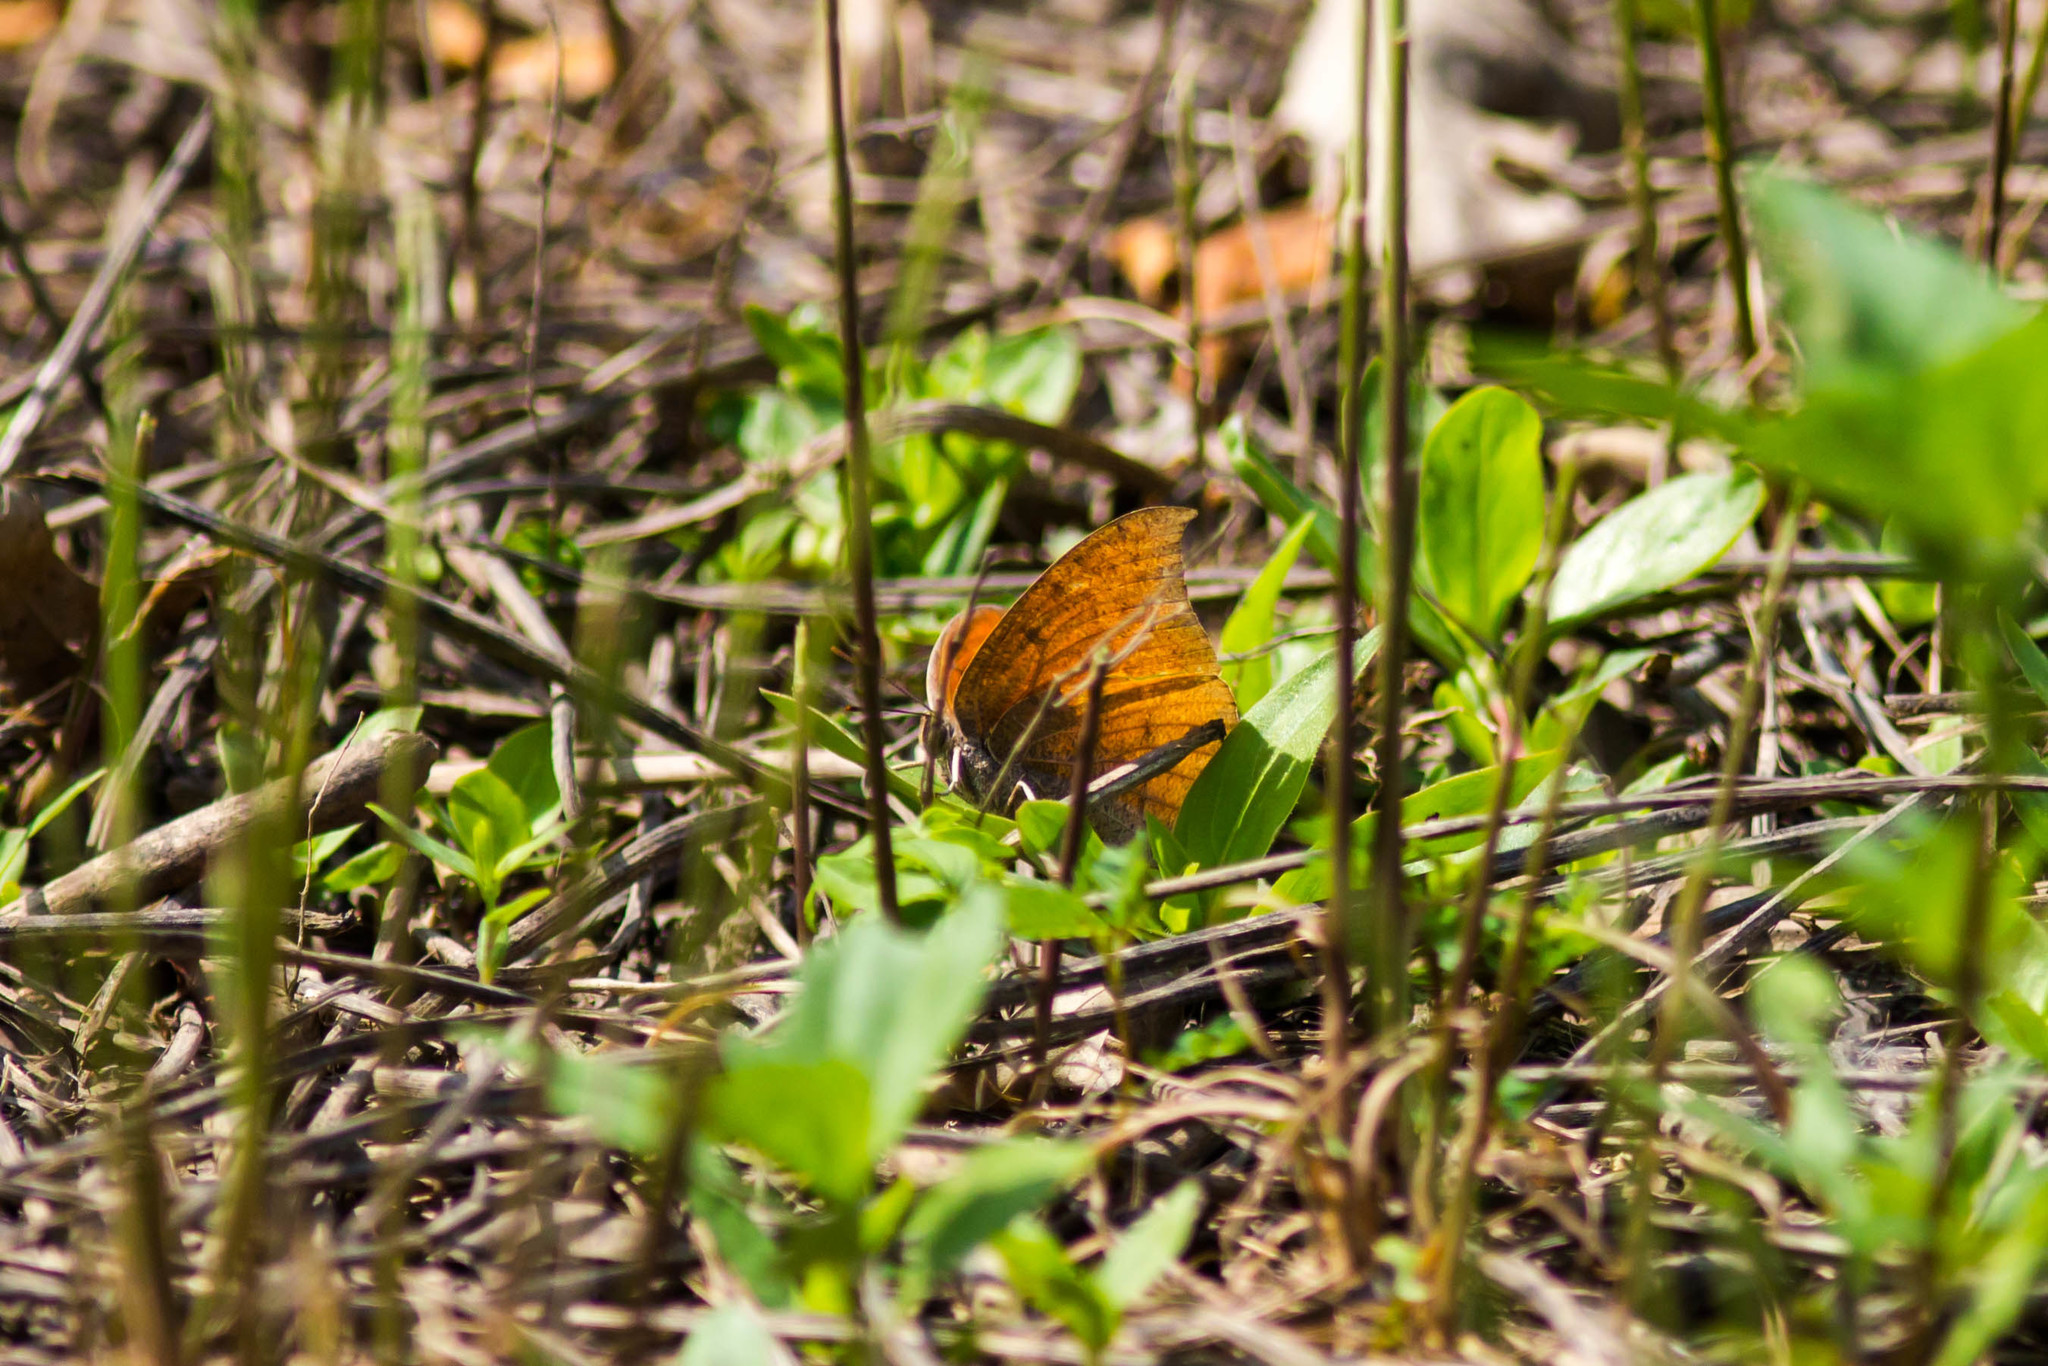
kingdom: Animalia
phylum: Arthropoda
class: Insecta
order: Lepidoptera
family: Nymphalidae
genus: Anaea
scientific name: Anaea andria
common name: Goatweed leafwing
